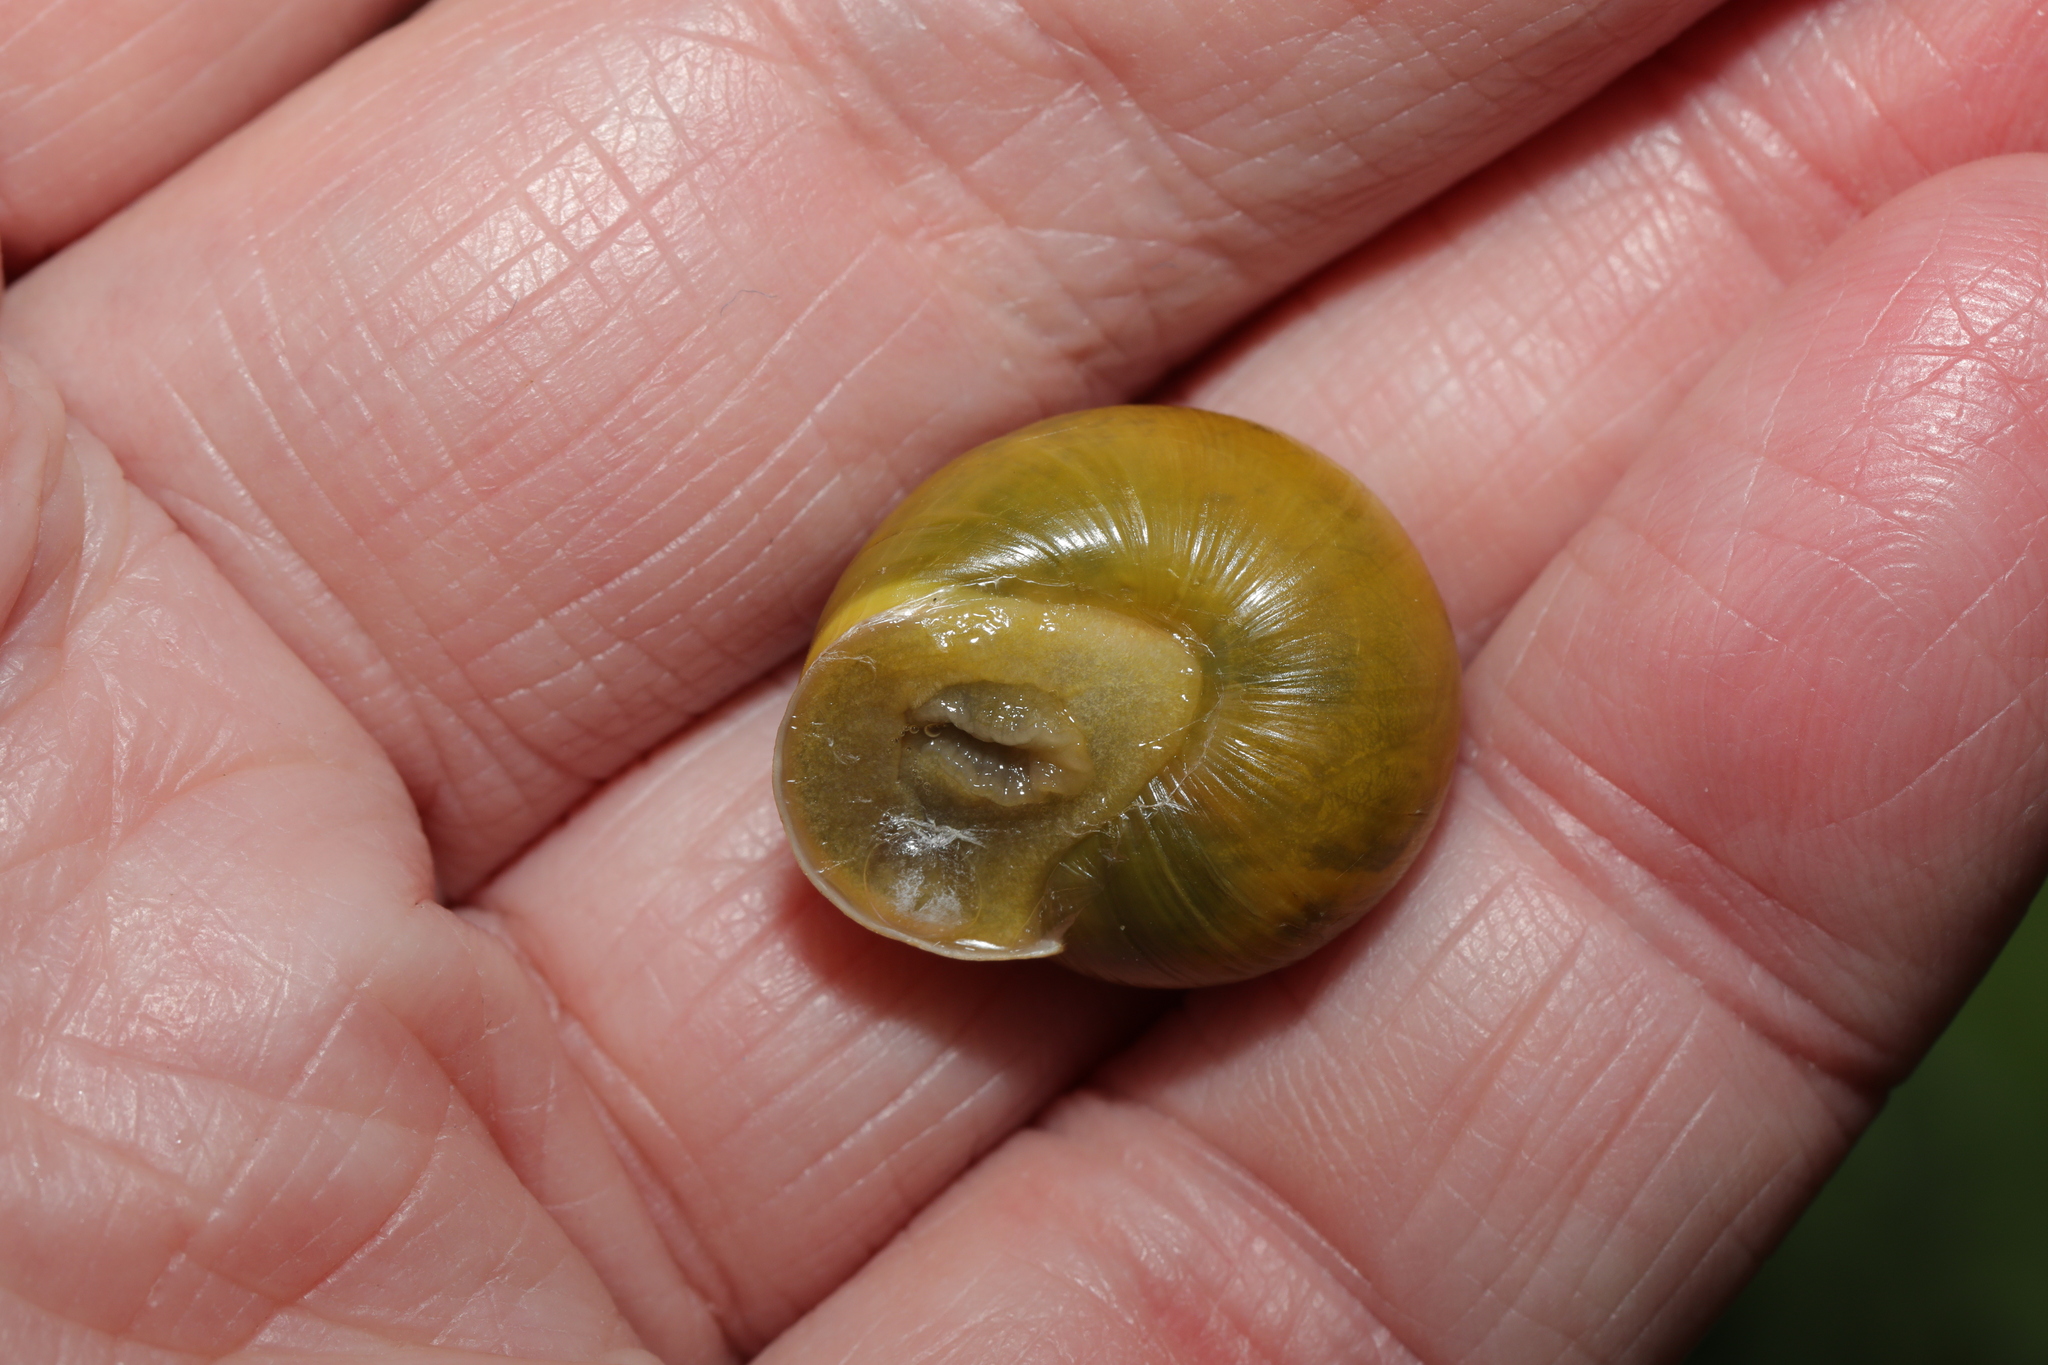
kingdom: Animalia
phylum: Mollusca
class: Gastropoda
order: Stylommatophora
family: Helicidae
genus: Cepaea
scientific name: Cepaea hortensis
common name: White-lip gardensnail
